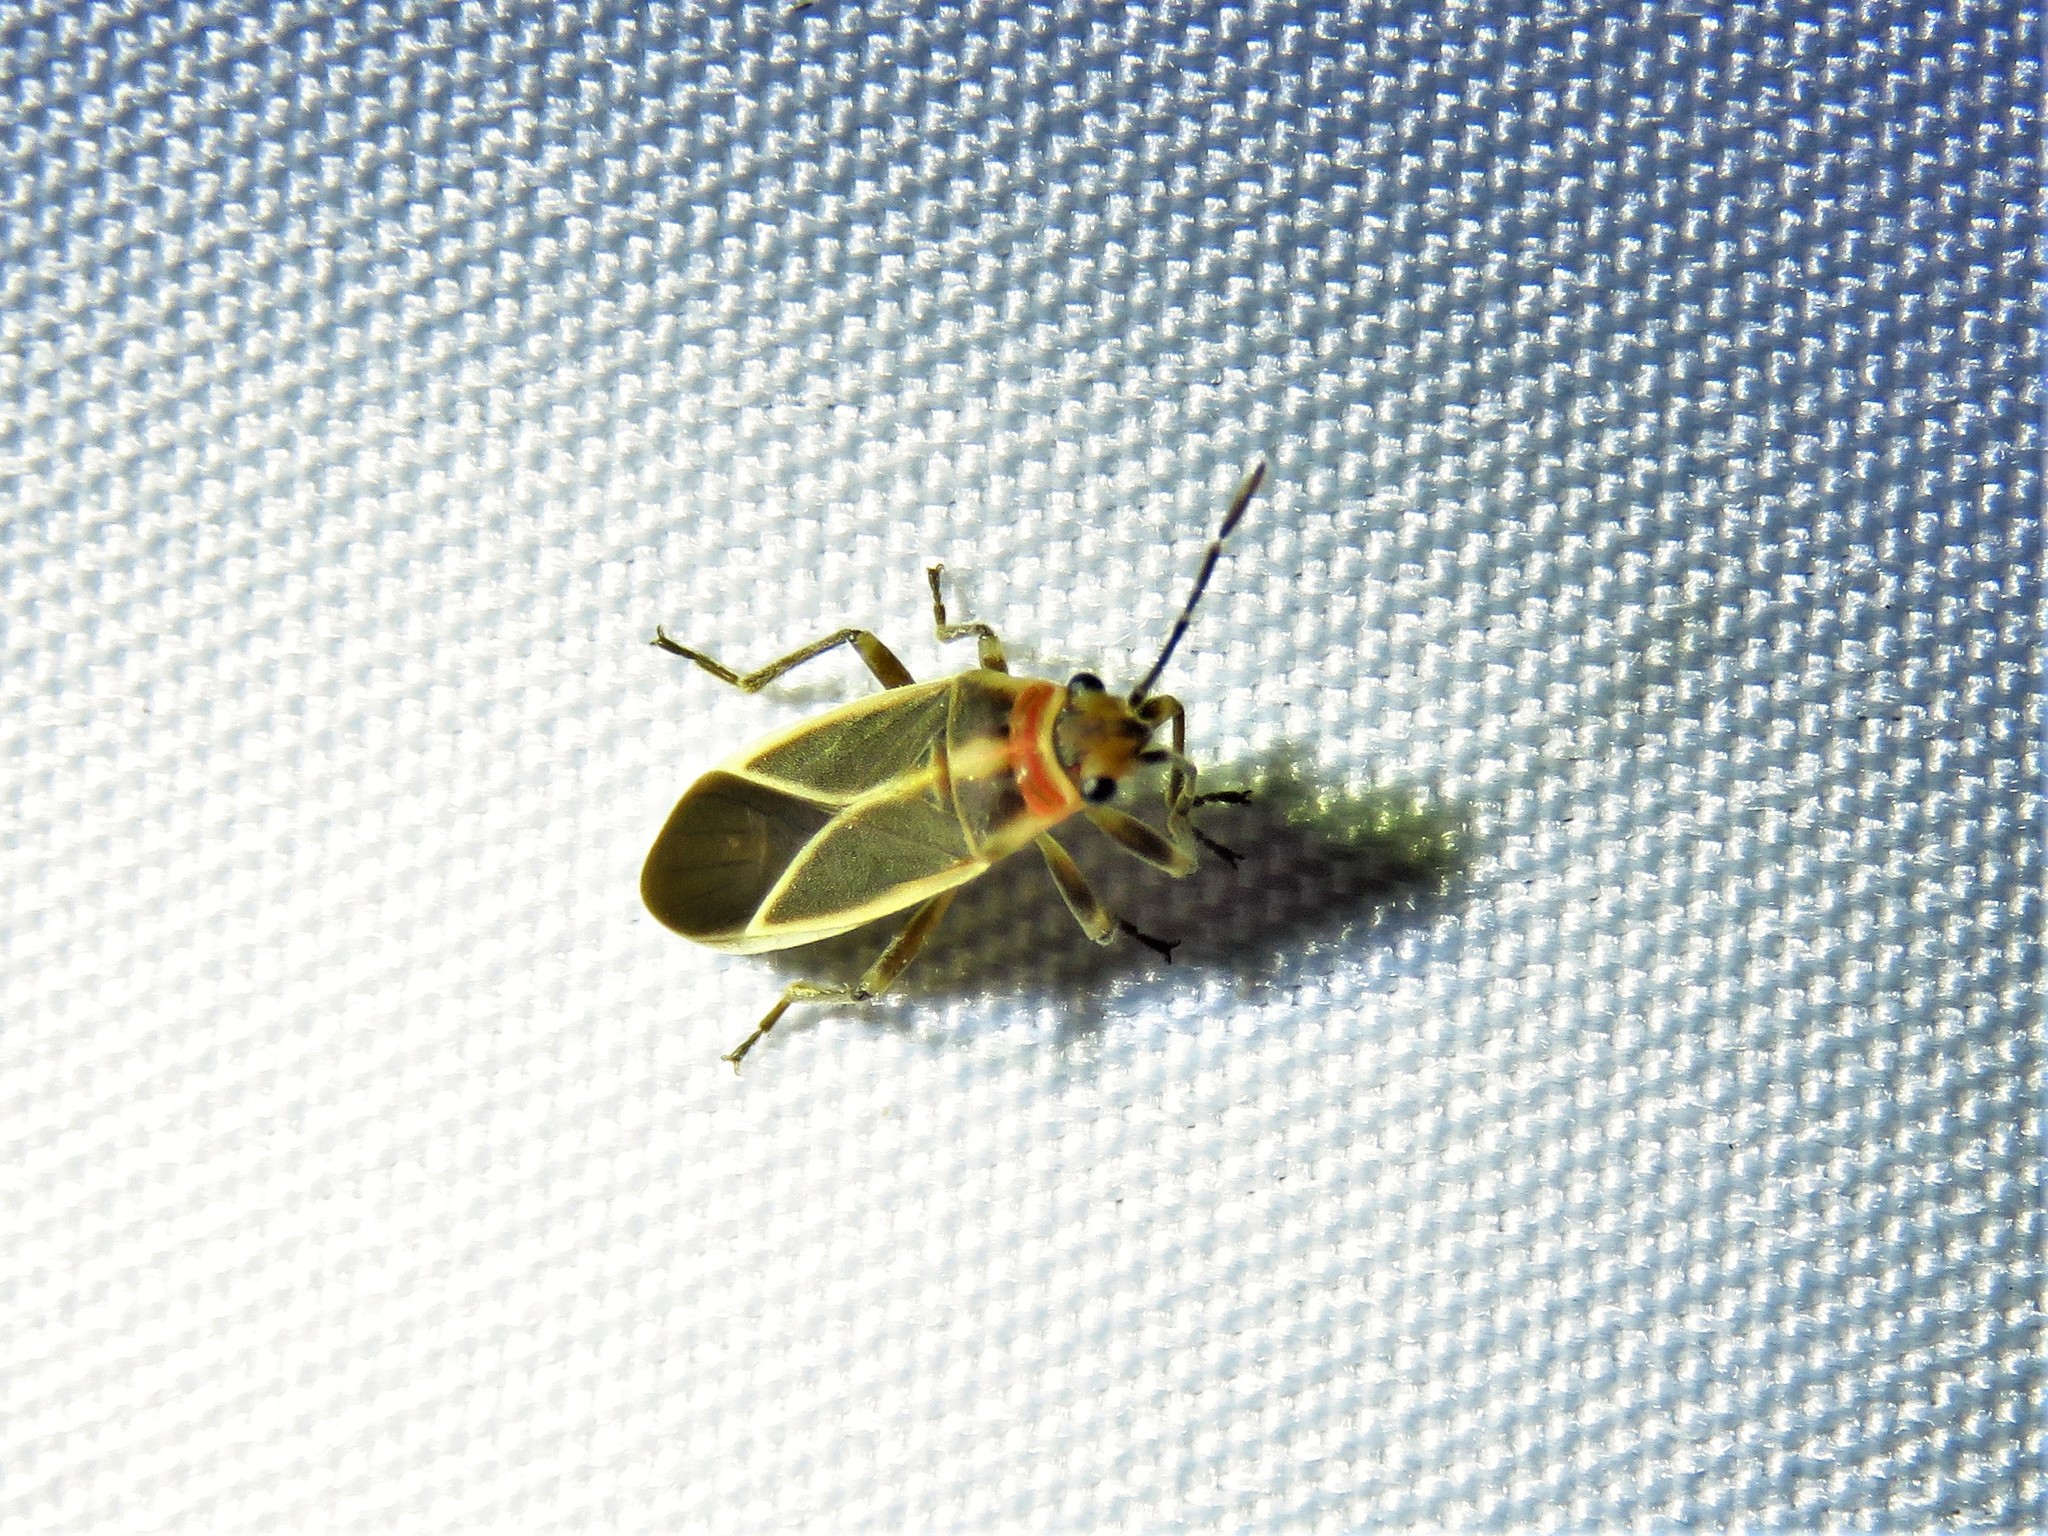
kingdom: Animalia
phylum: Arthropoda
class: Insecta
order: Hemiptera
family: Lygaeidae
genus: Ochrimnus
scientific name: Ochrimnus mimulus
